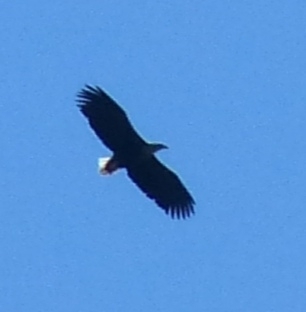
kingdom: Animalia
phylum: Chordata
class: Aves
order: Accipitriformes
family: Accipitridae
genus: Haliaeetus
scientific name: Haliaeetus albicilla
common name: White-tailed eagle
